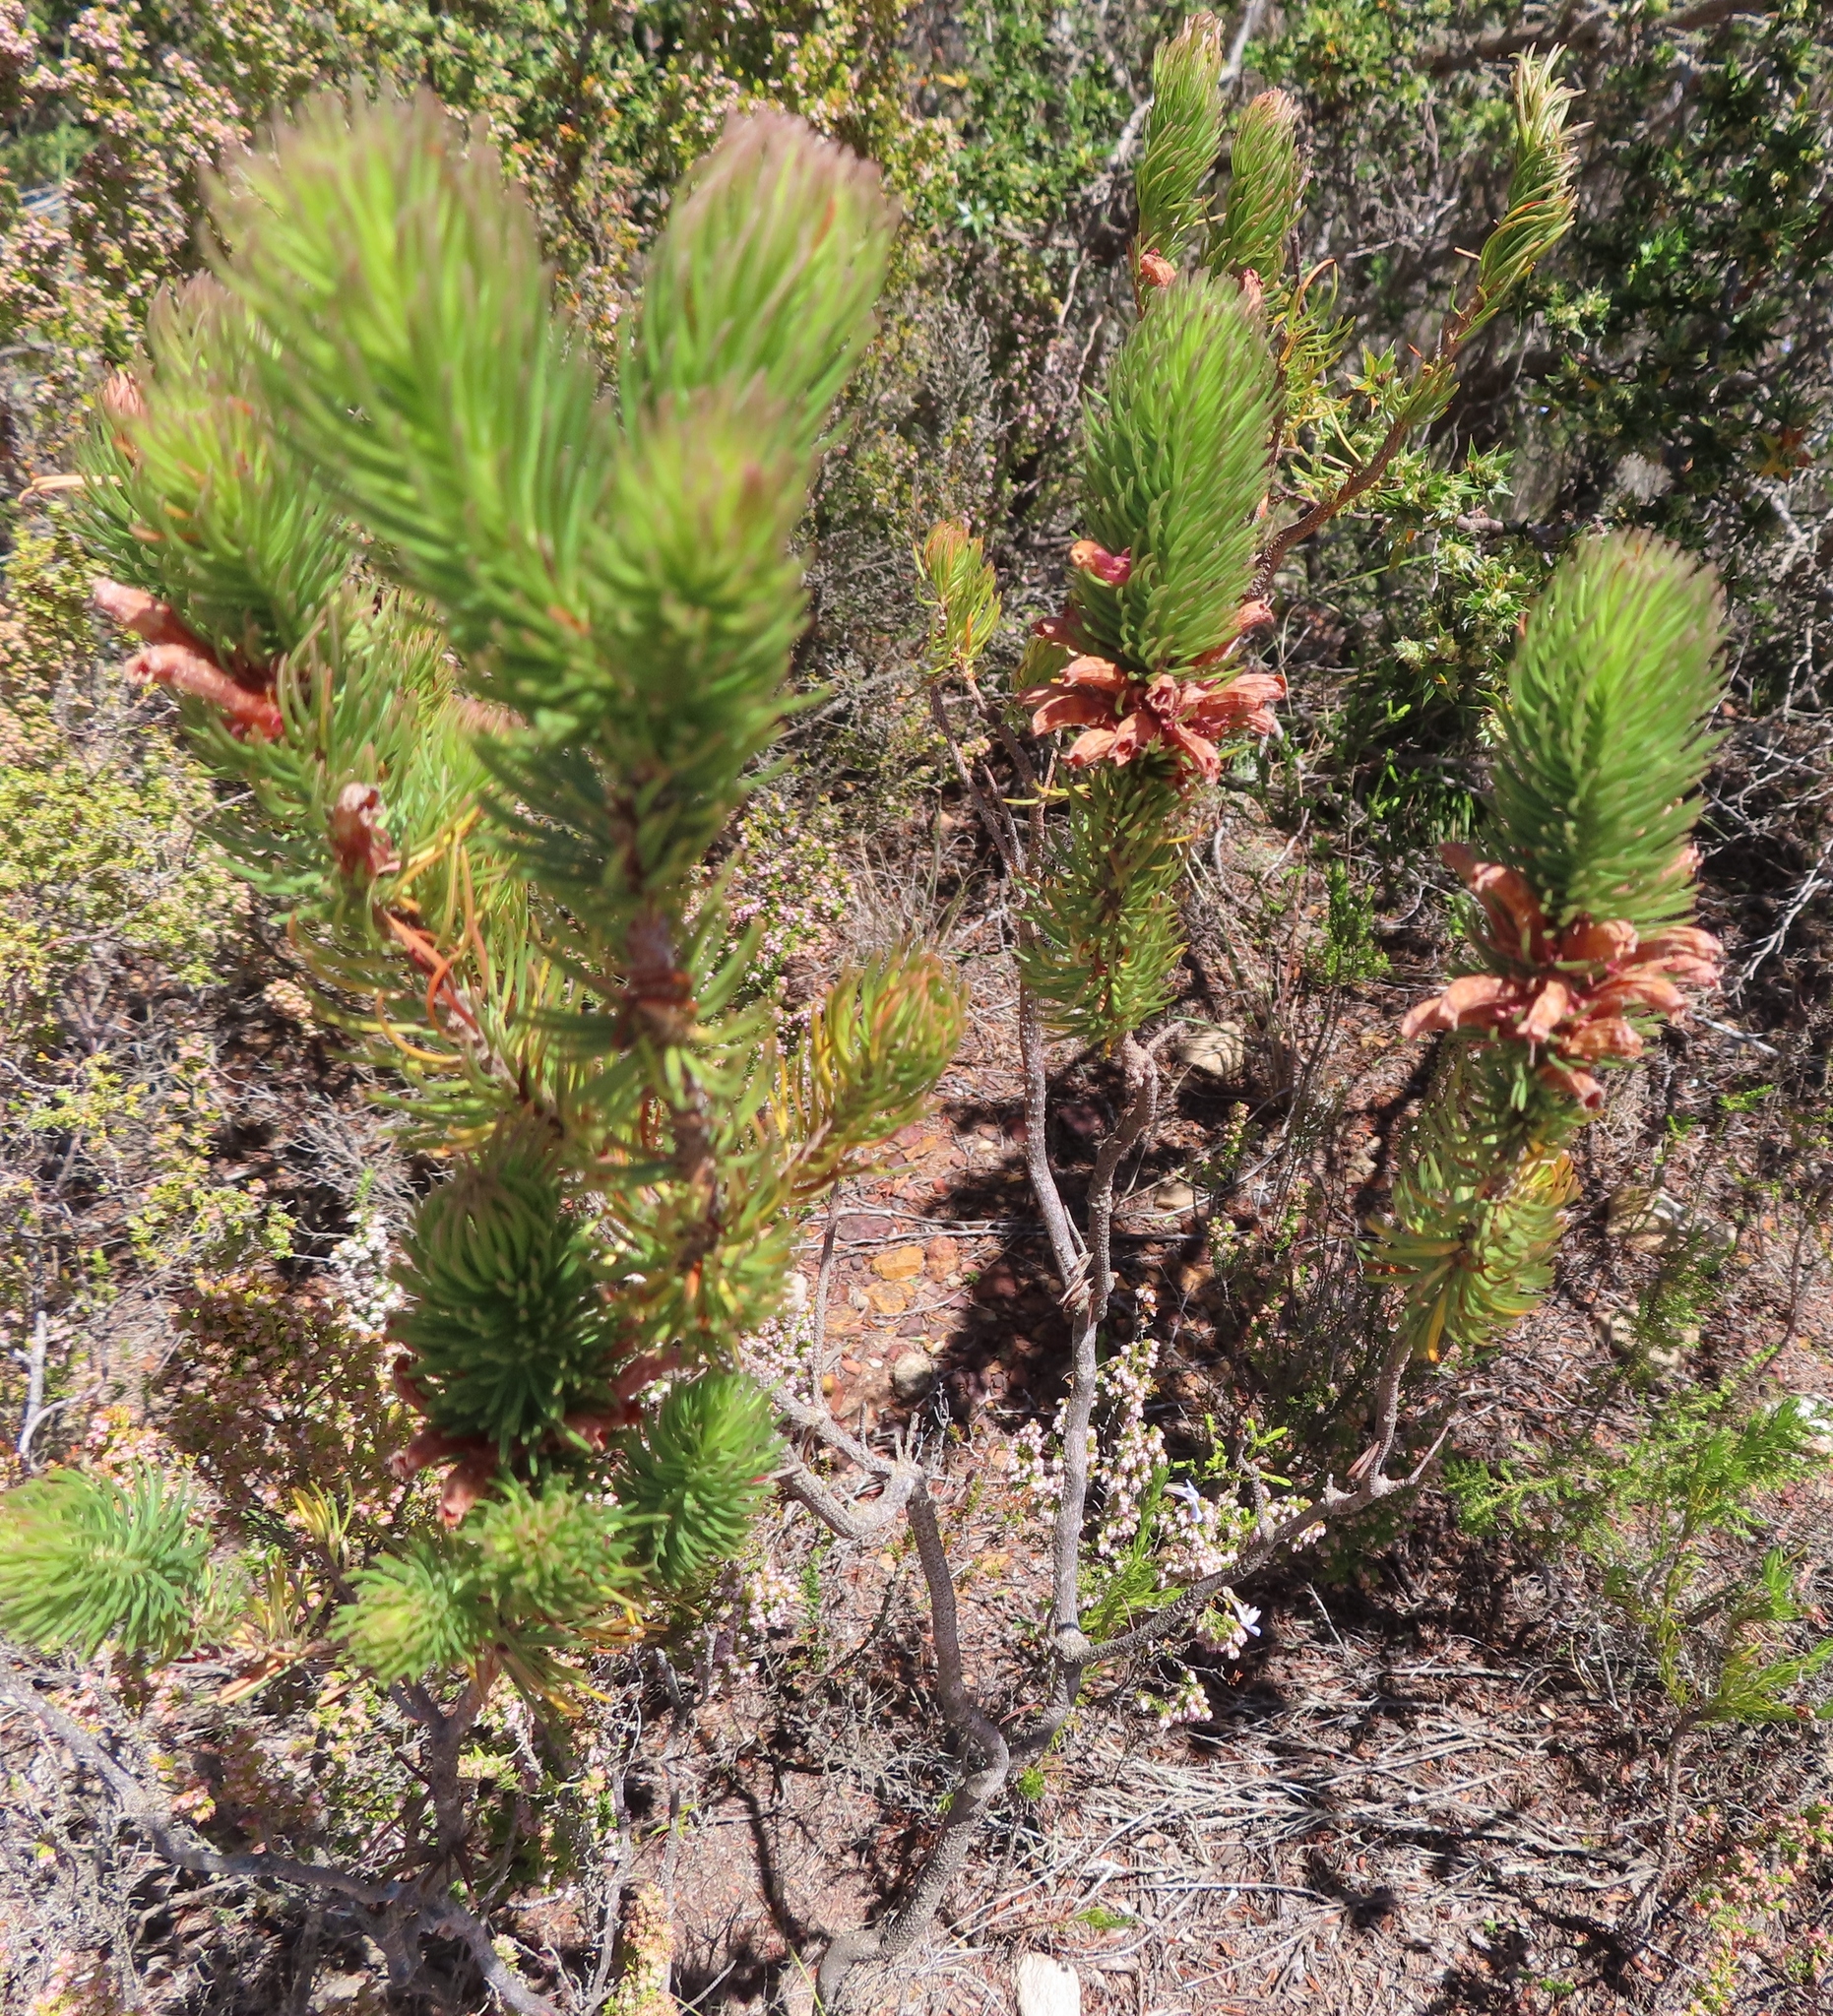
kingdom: Plantae
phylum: Tracheophyta
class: Magnoliopsida
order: Ericales
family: Ericaceae
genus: Erica
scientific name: Erica viscaria
